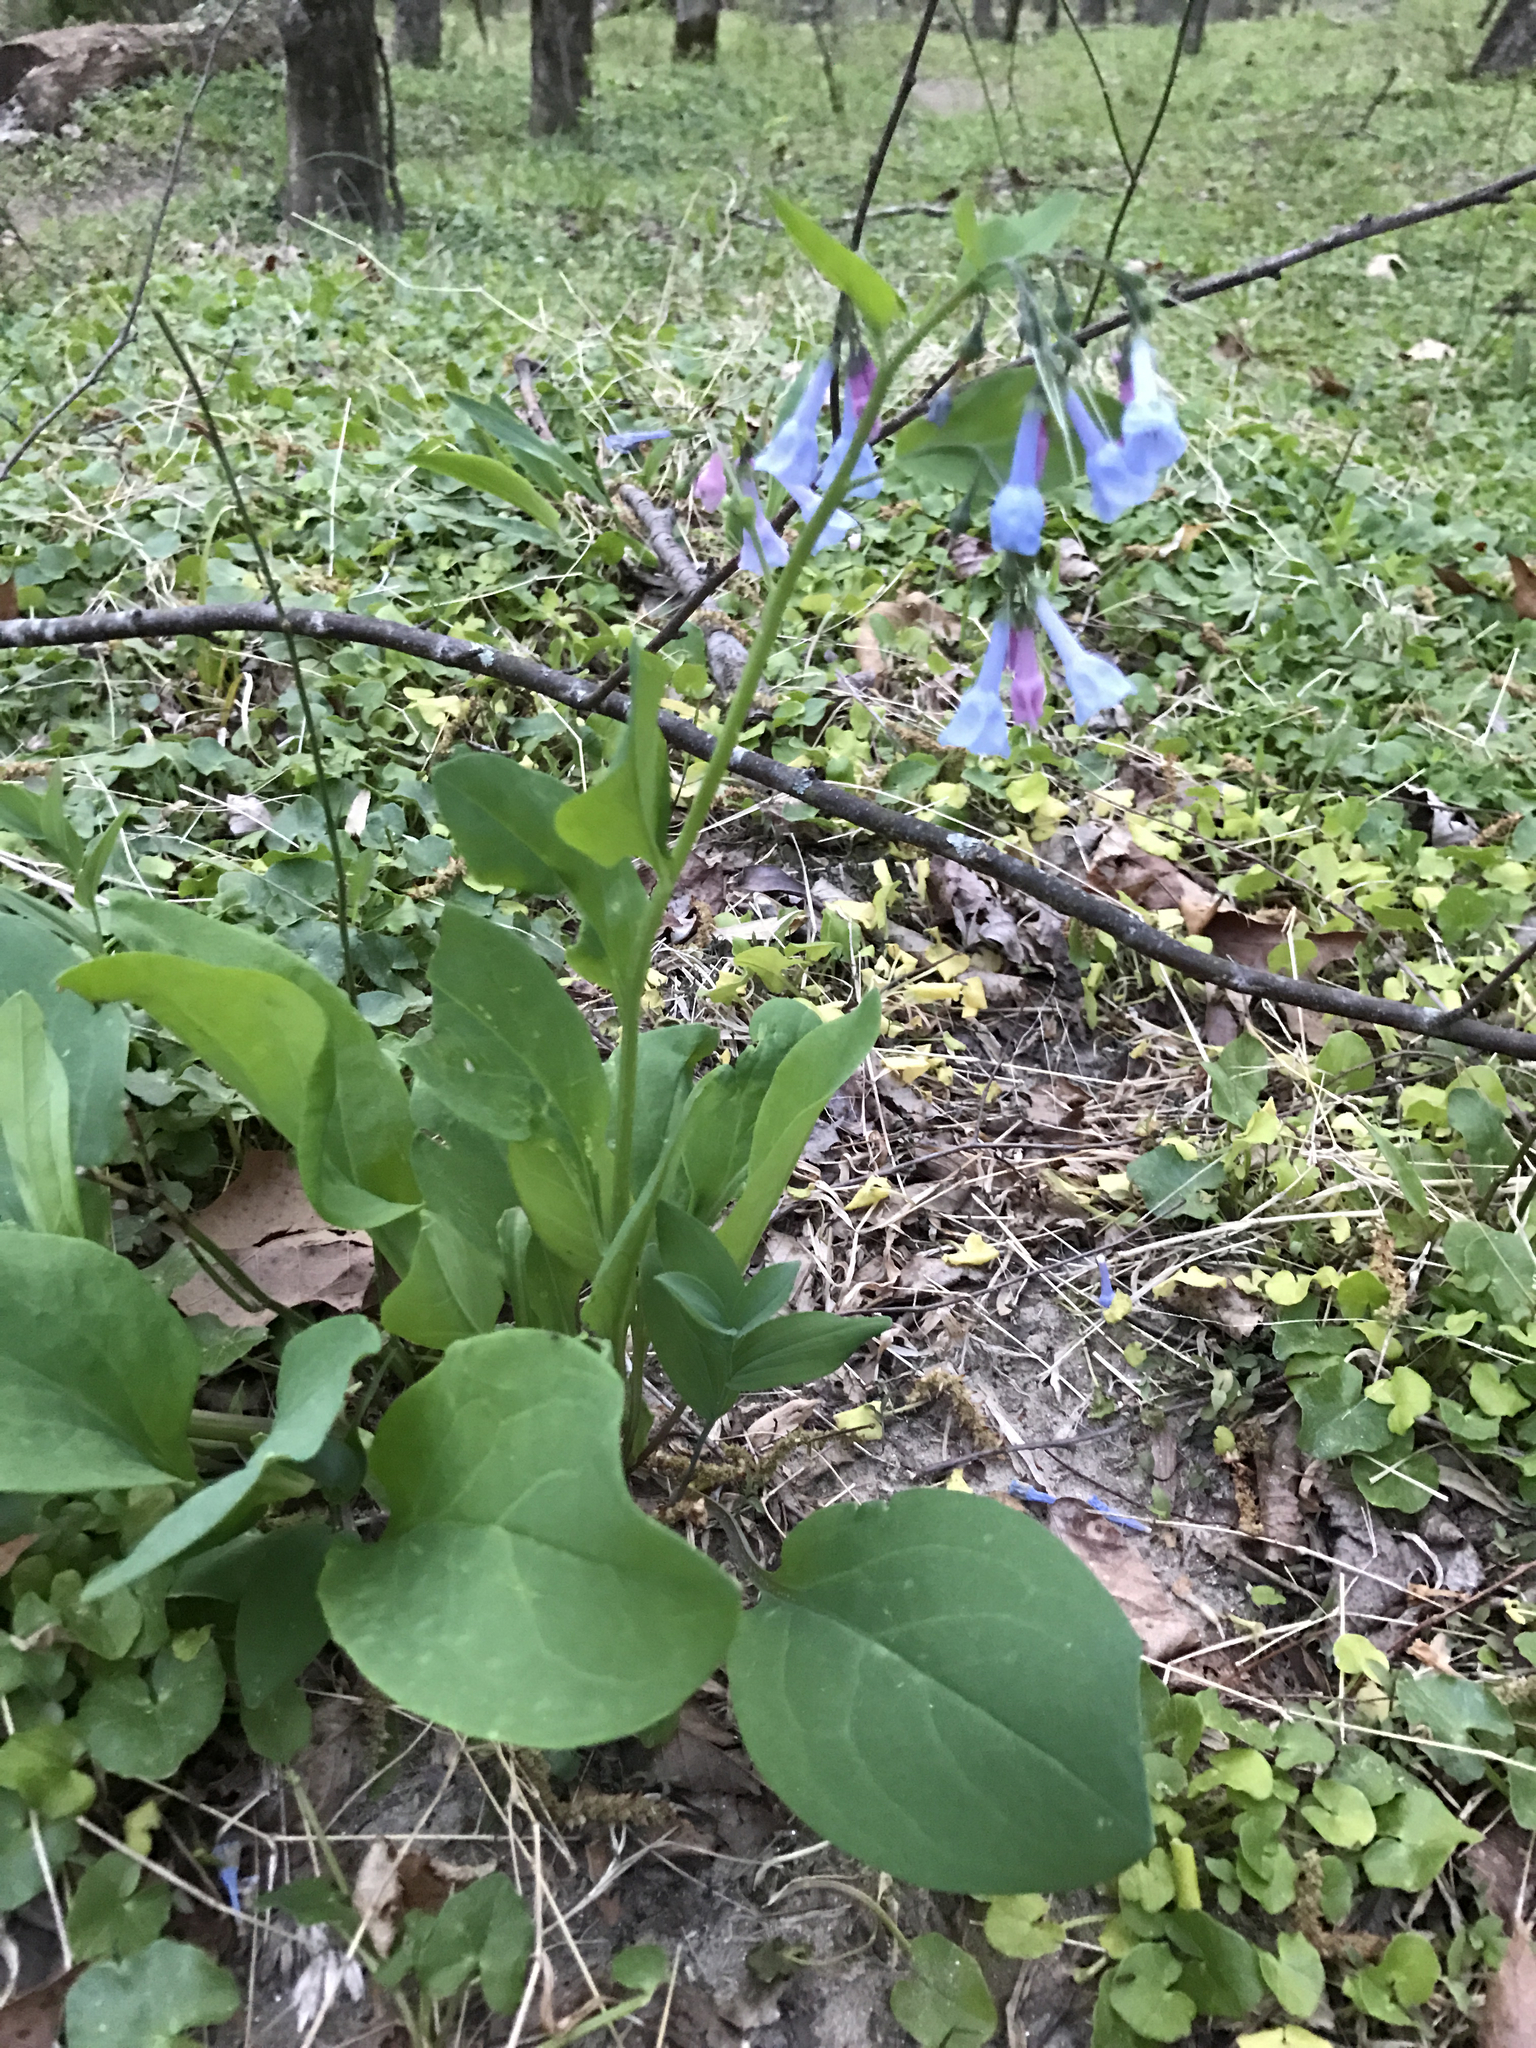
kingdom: Plantae
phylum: Tracheophyta
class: Magnoliopsida
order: Boraginales
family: Boraginaceae
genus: Mertensia
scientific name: Mertensia virginica
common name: Virginia bluebells
